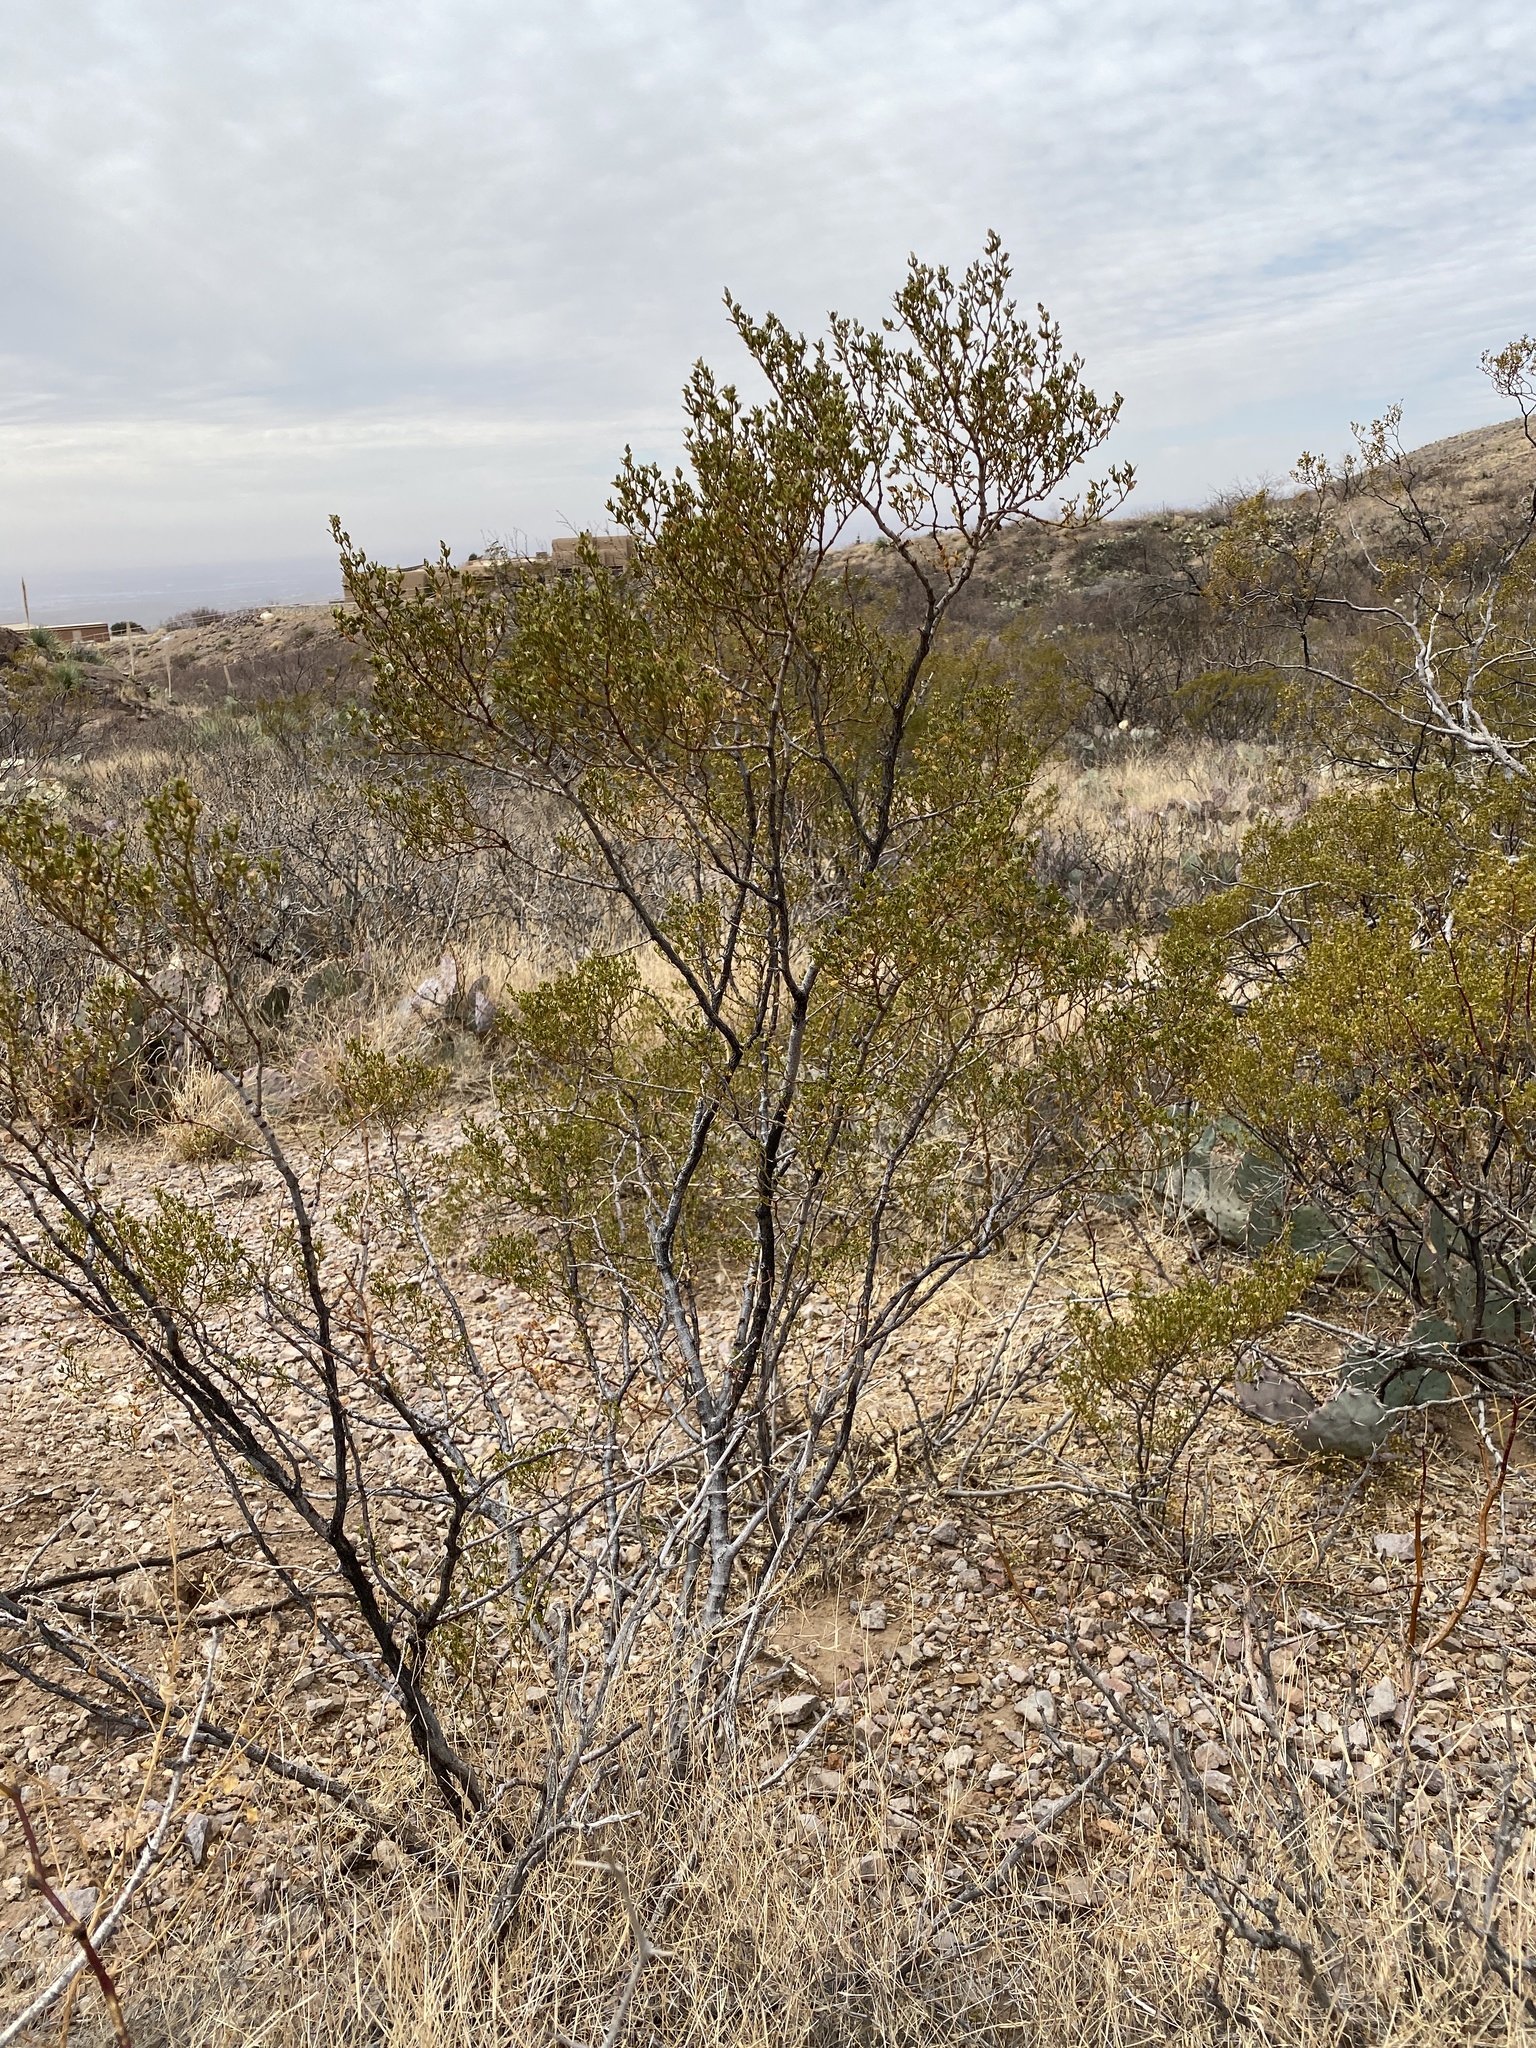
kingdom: Plantae
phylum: Tracheophyta
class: Magnoliopsida
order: Zygophyllales
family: Zygophyllaceae
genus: Larrea
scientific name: Larrea tridentata
